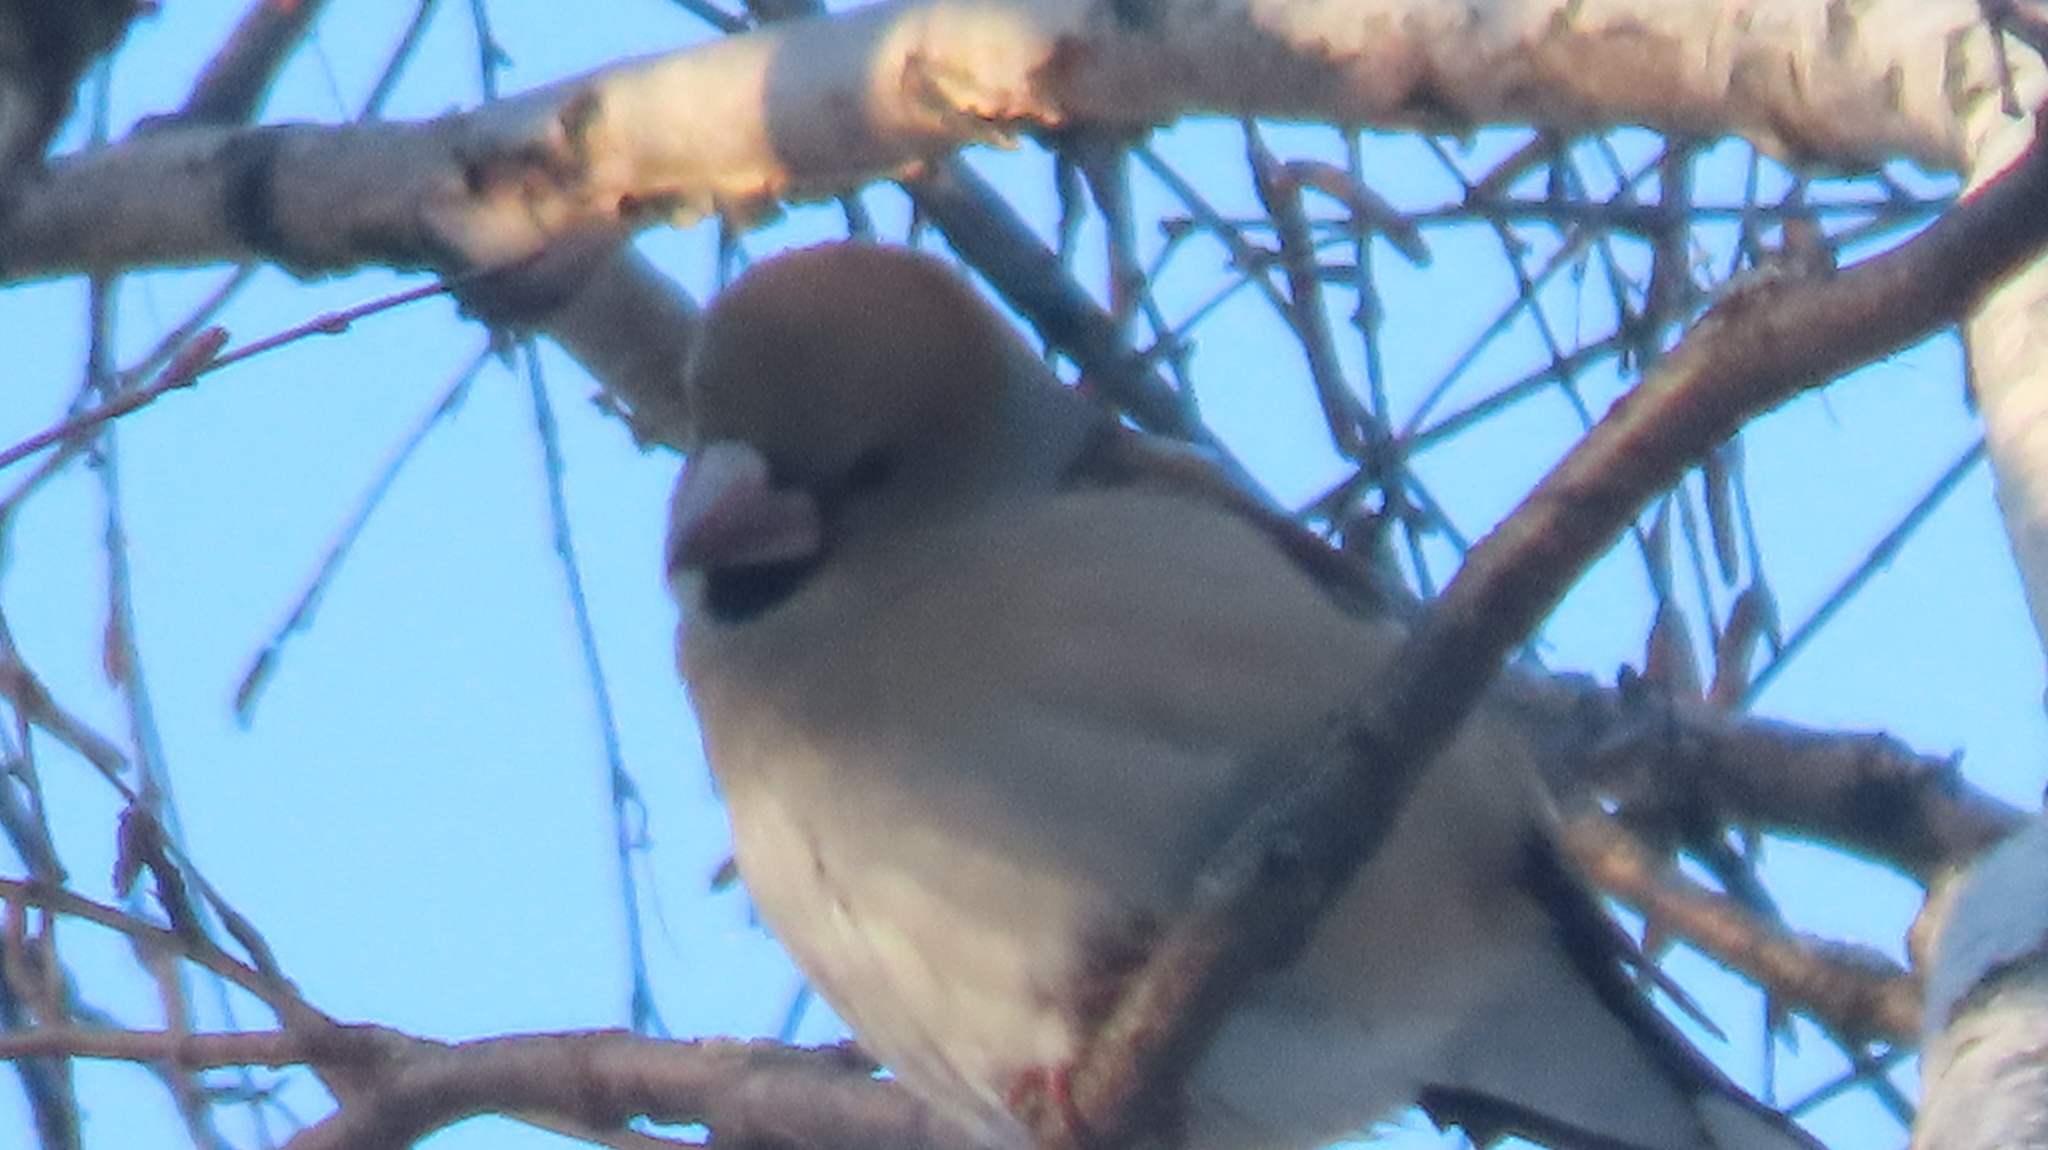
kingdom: Animalia
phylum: Chordata
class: Aves
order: Passeriformes
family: Fringillidae
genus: Coccothraustes
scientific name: Coccothraustes coccothraustes
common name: Hawfinch
